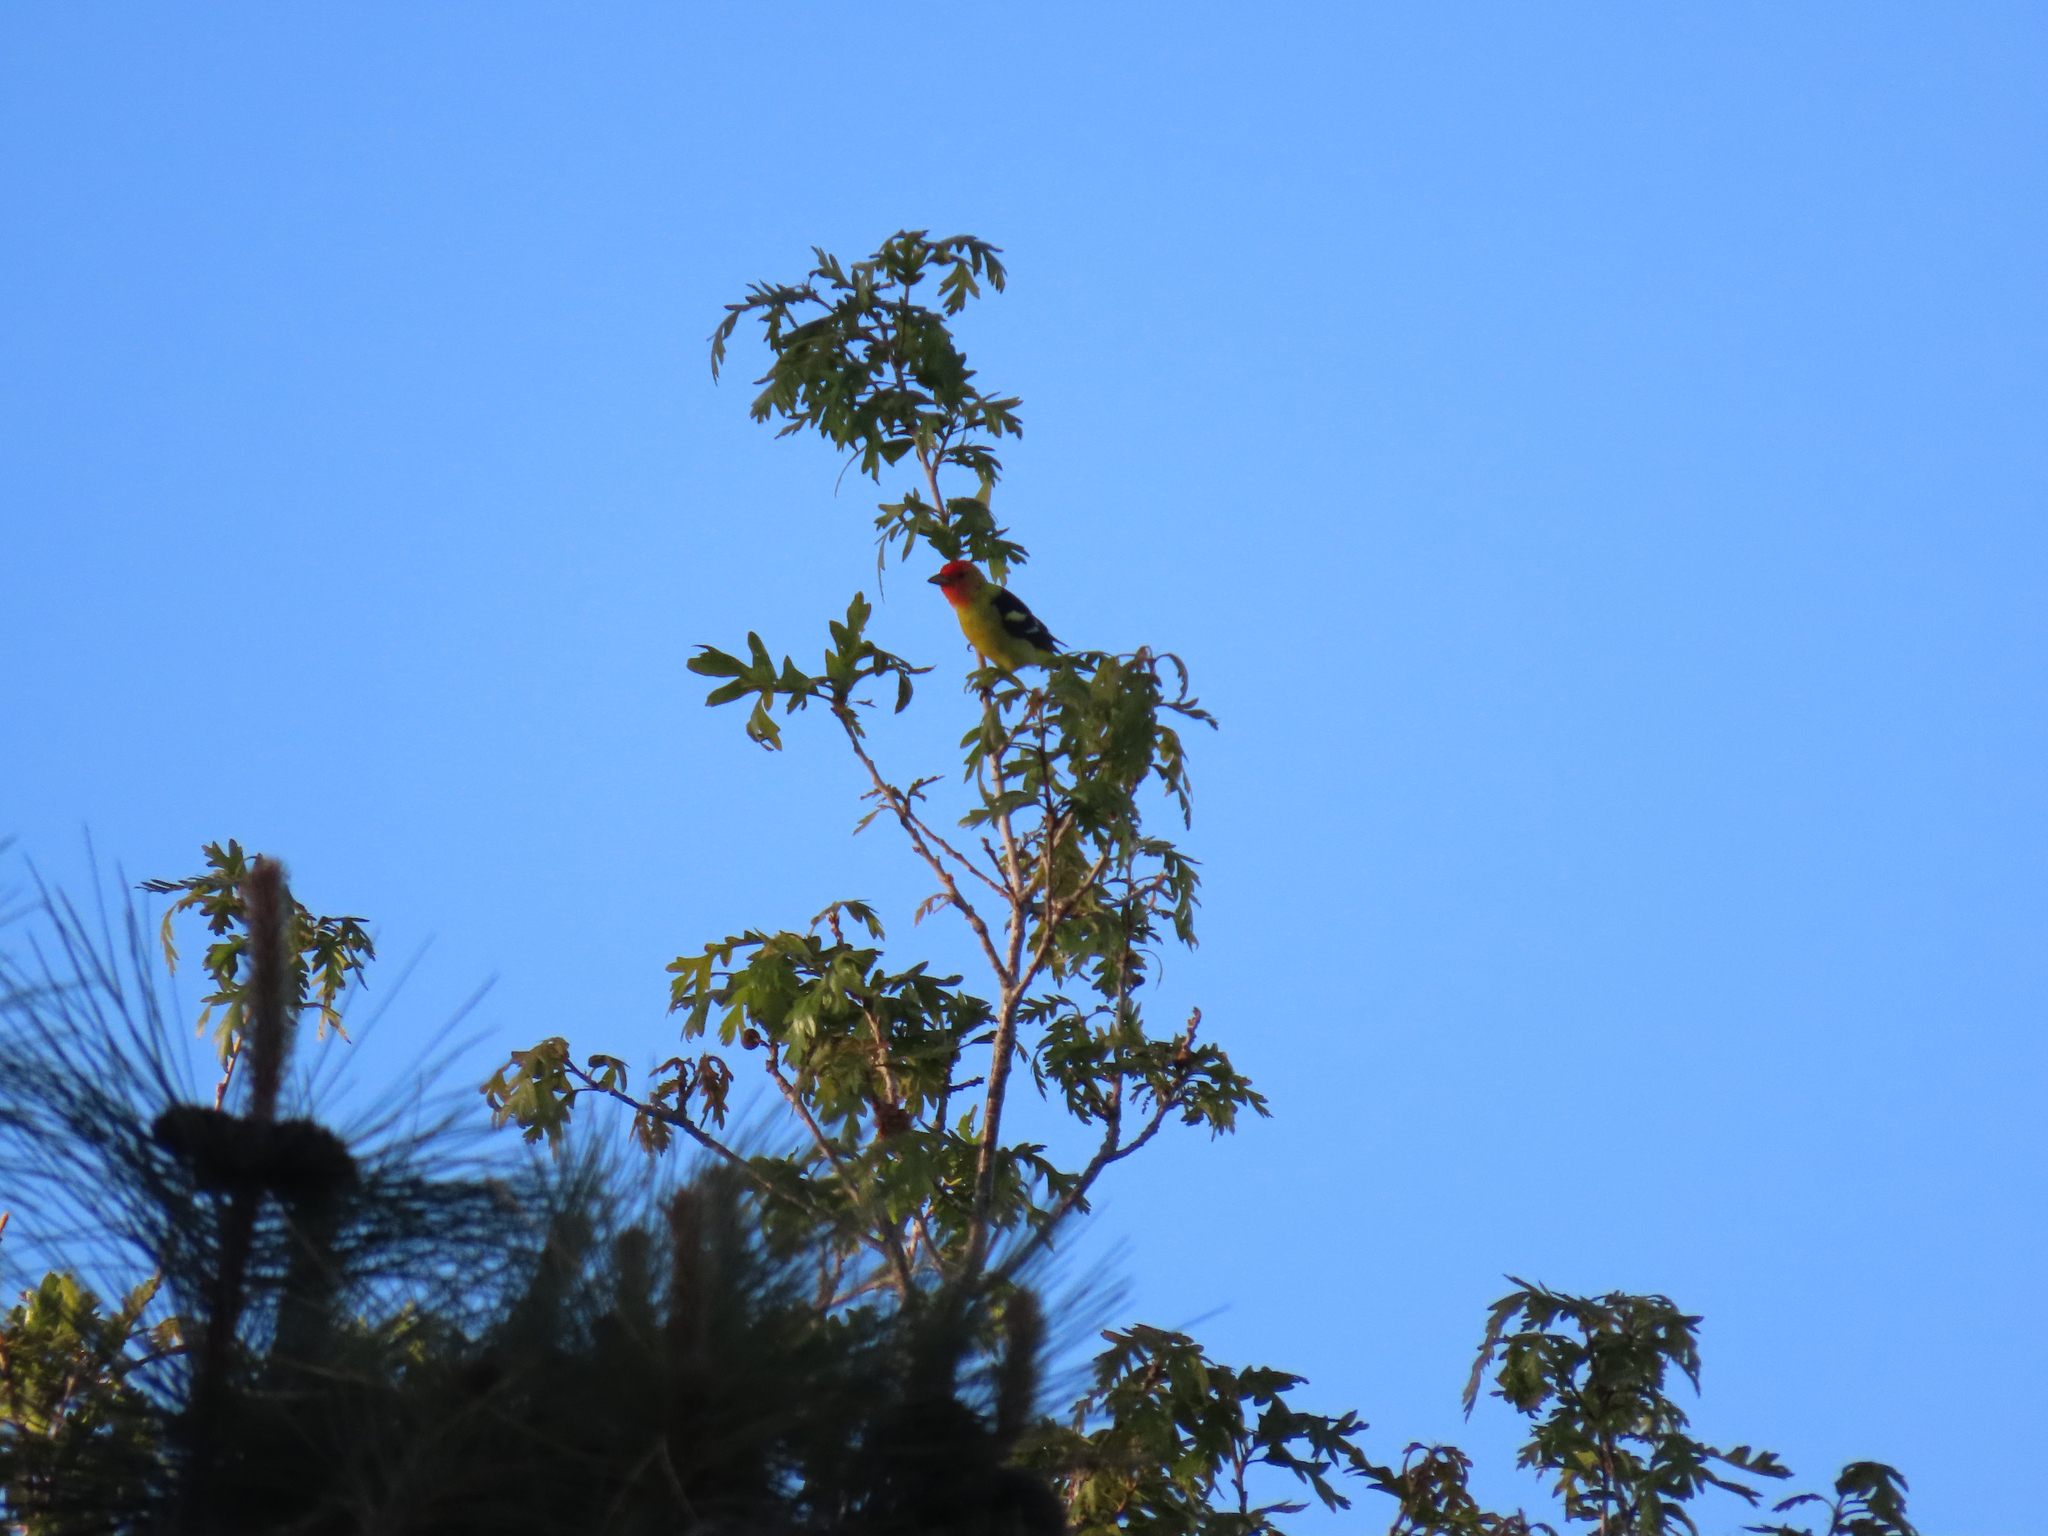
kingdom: Animalia
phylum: Chordata
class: Aves
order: Passeriformes
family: Cardinalidae
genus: Piranga
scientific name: Piranga ludoviciana
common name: Western tanager
